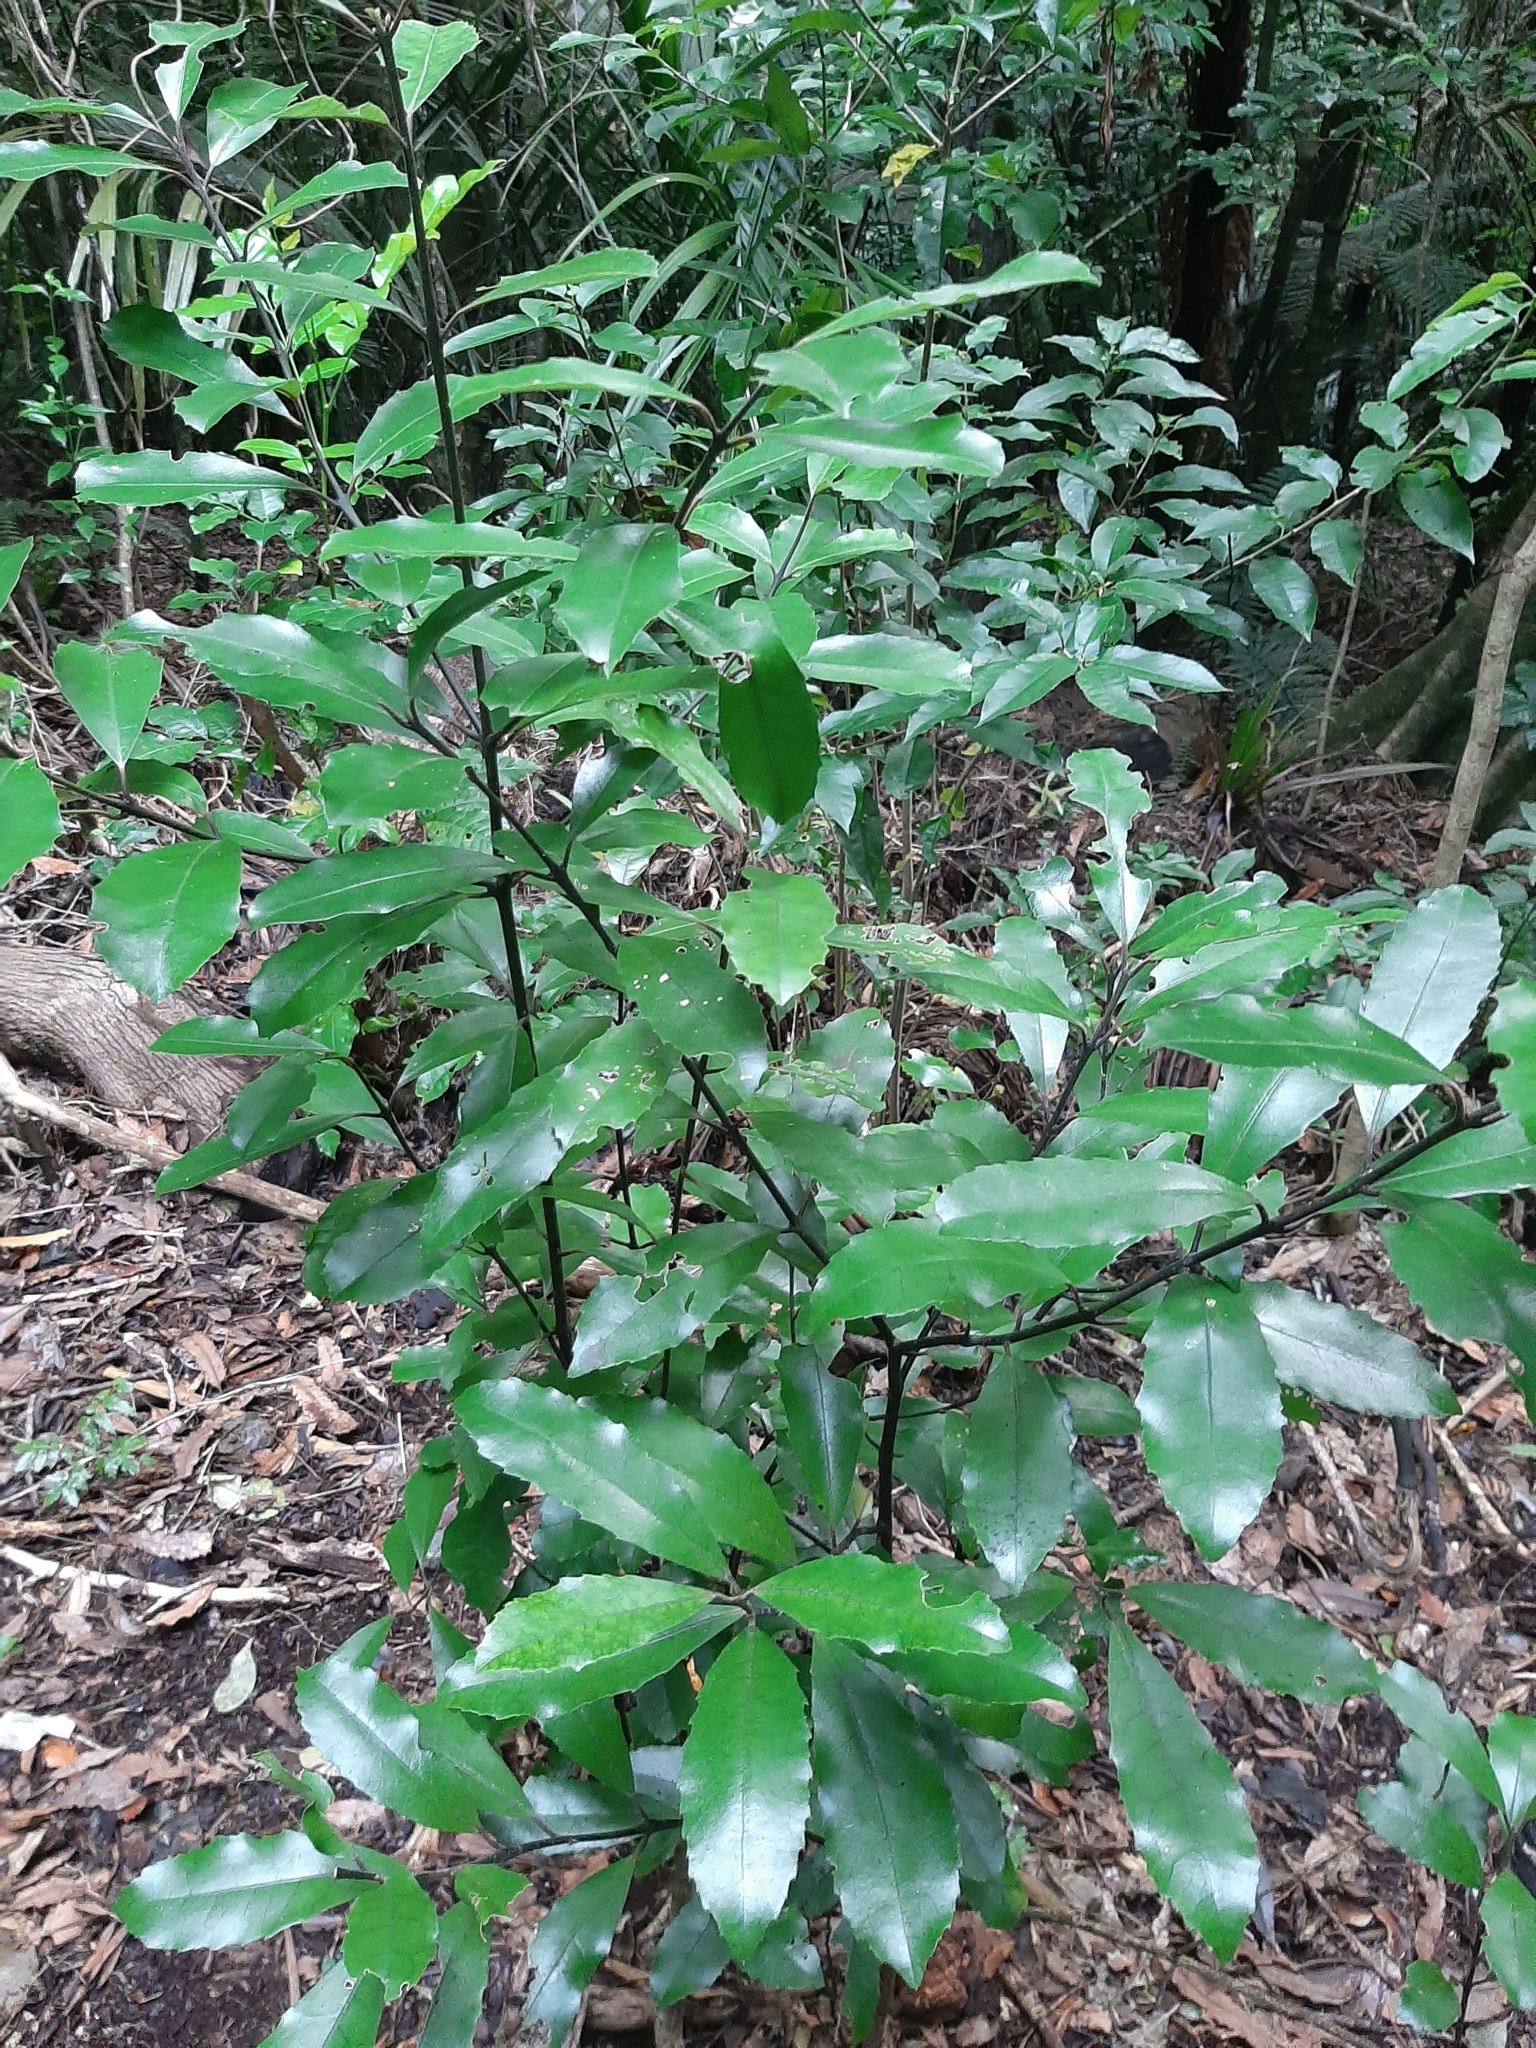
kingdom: Plantae
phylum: Tracheophyta
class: Magnoliopsida
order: Laurales
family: Monimiaceae
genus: Hedycarya
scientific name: Hedycarya arborea
